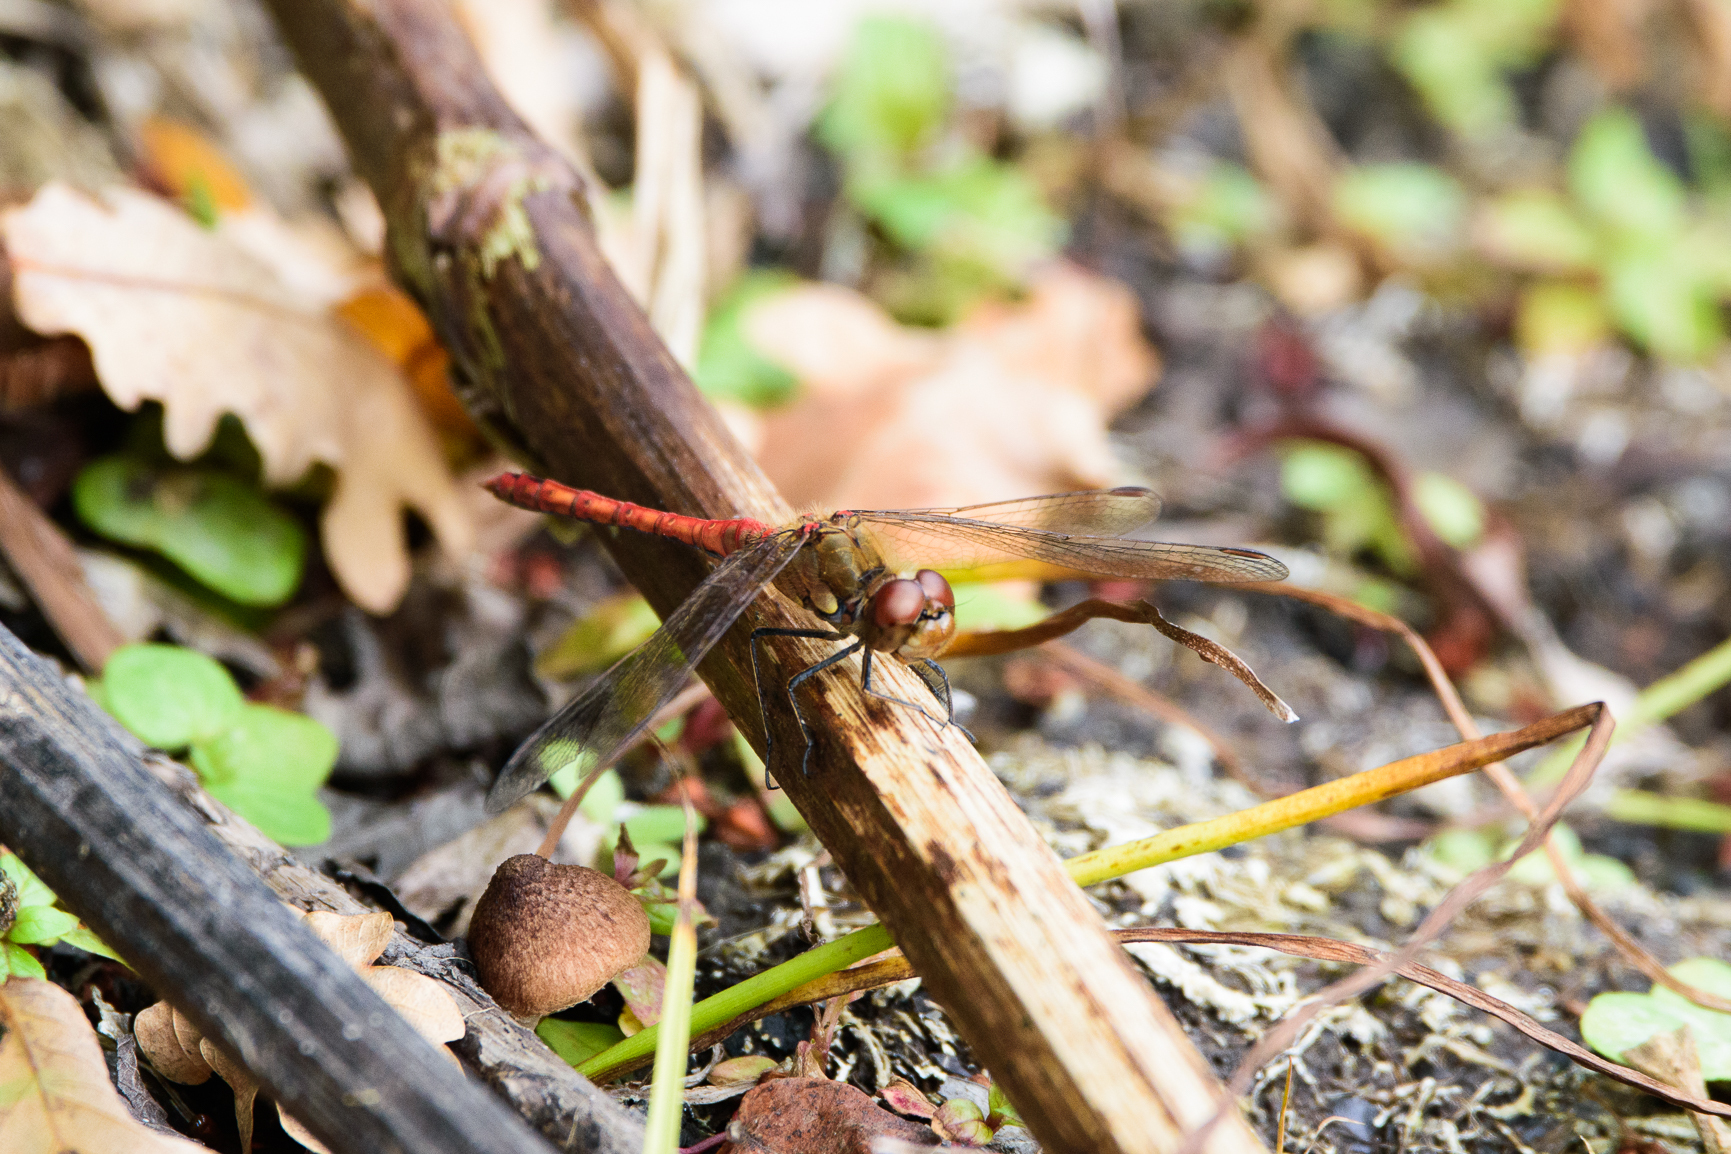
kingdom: Animalia
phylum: Arthropoda
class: Insecta
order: Odonata
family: Libellulidae
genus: Sympetrum
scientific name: Sympetrum striolatum
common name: Common darter
